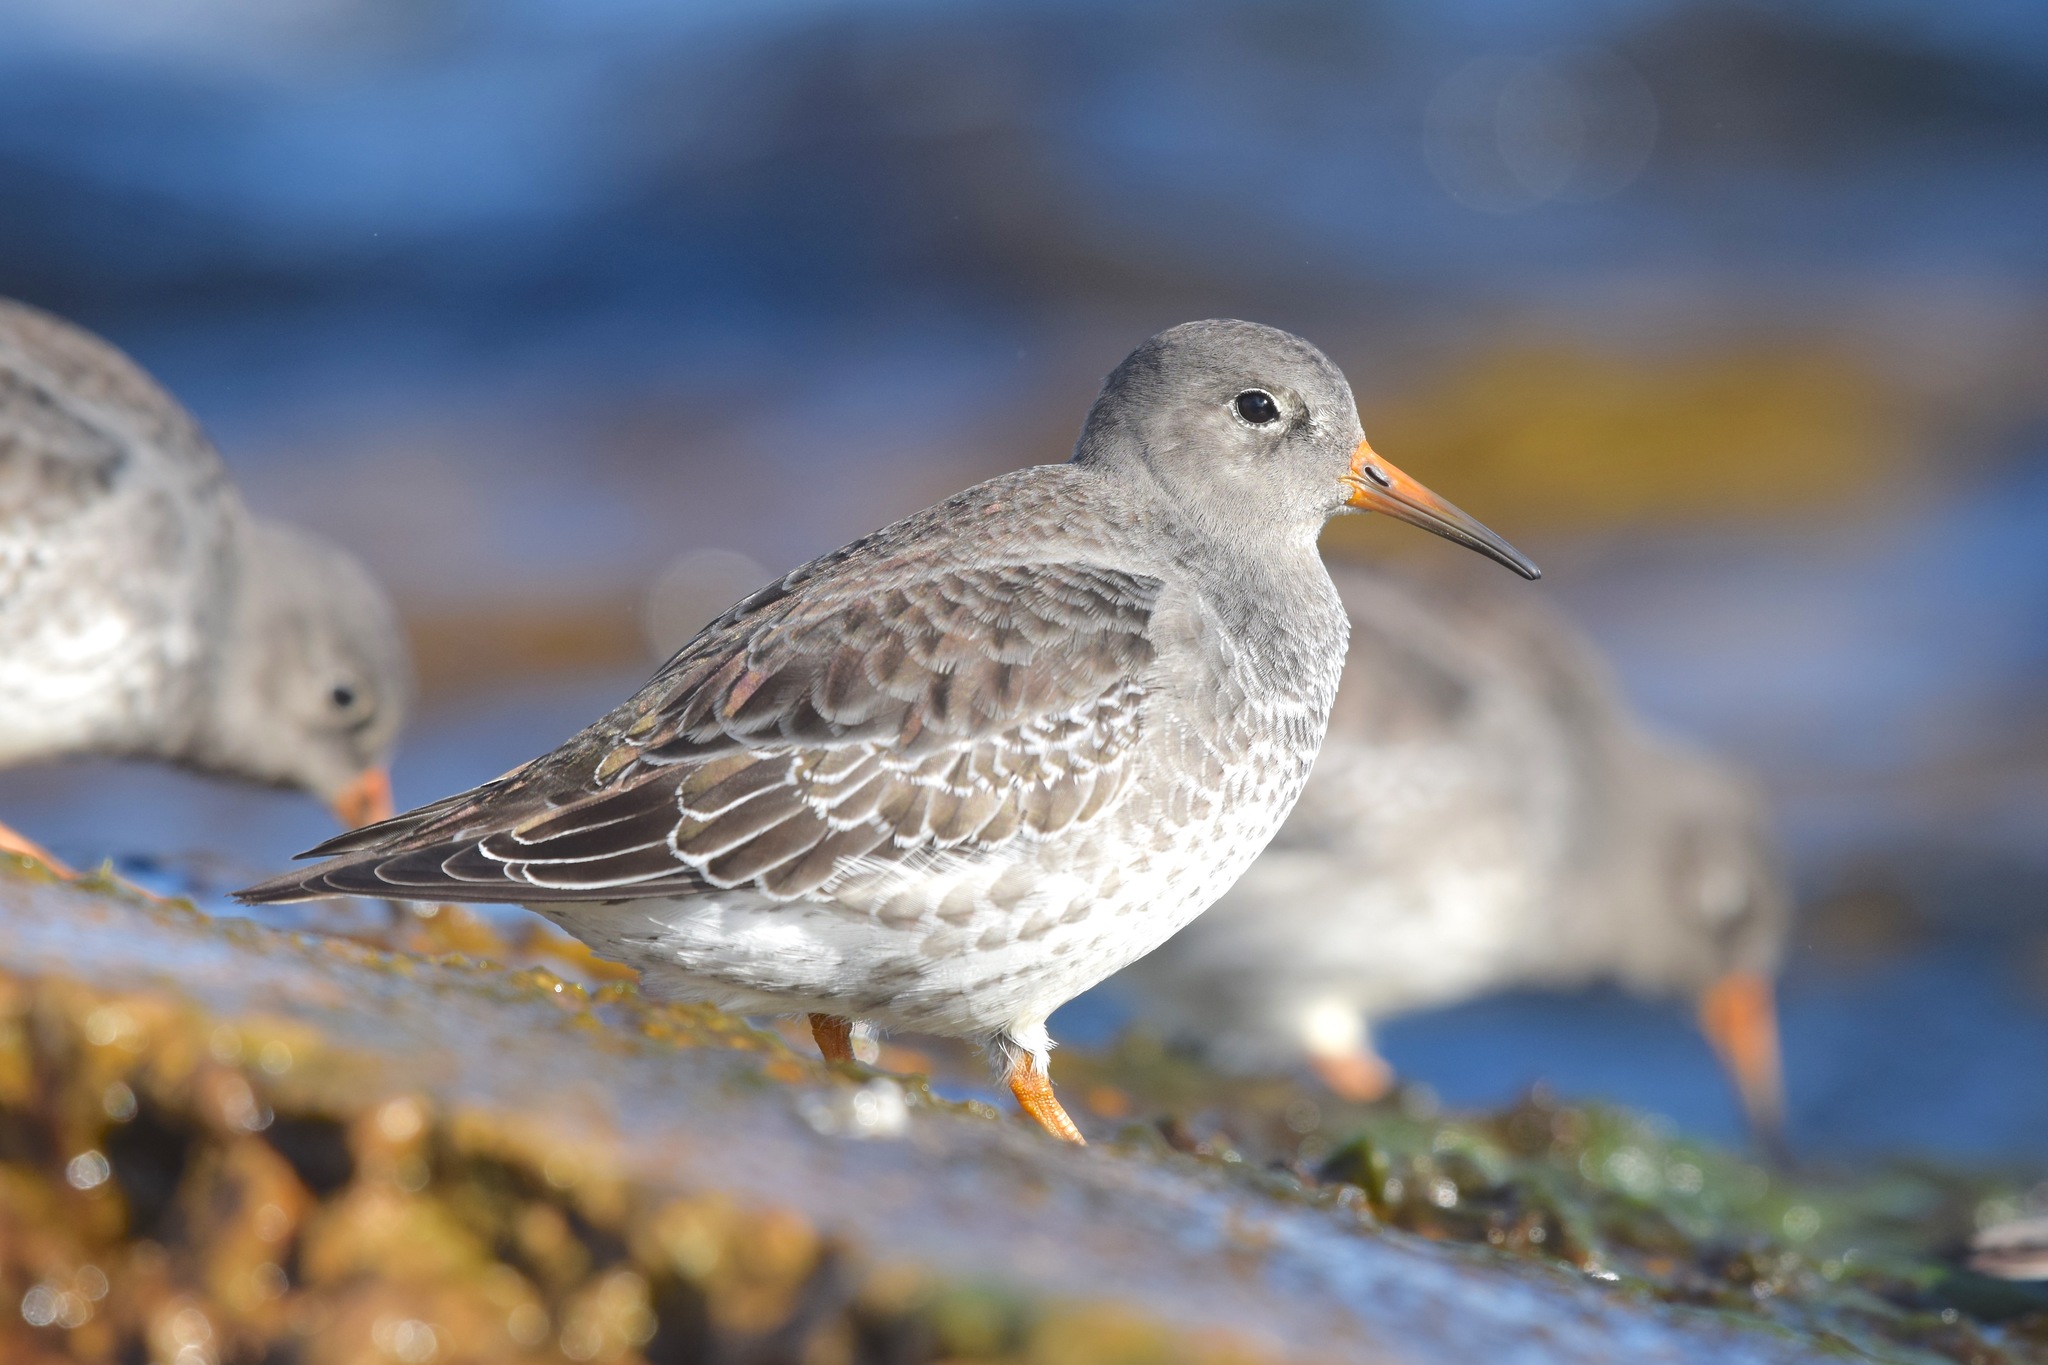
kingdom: Animalia
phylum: Chordata
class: Aves
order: Charadriiformes
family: Scolopacidae
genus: Calidris
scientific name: Calidris maritima
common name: Purple sandpiper
